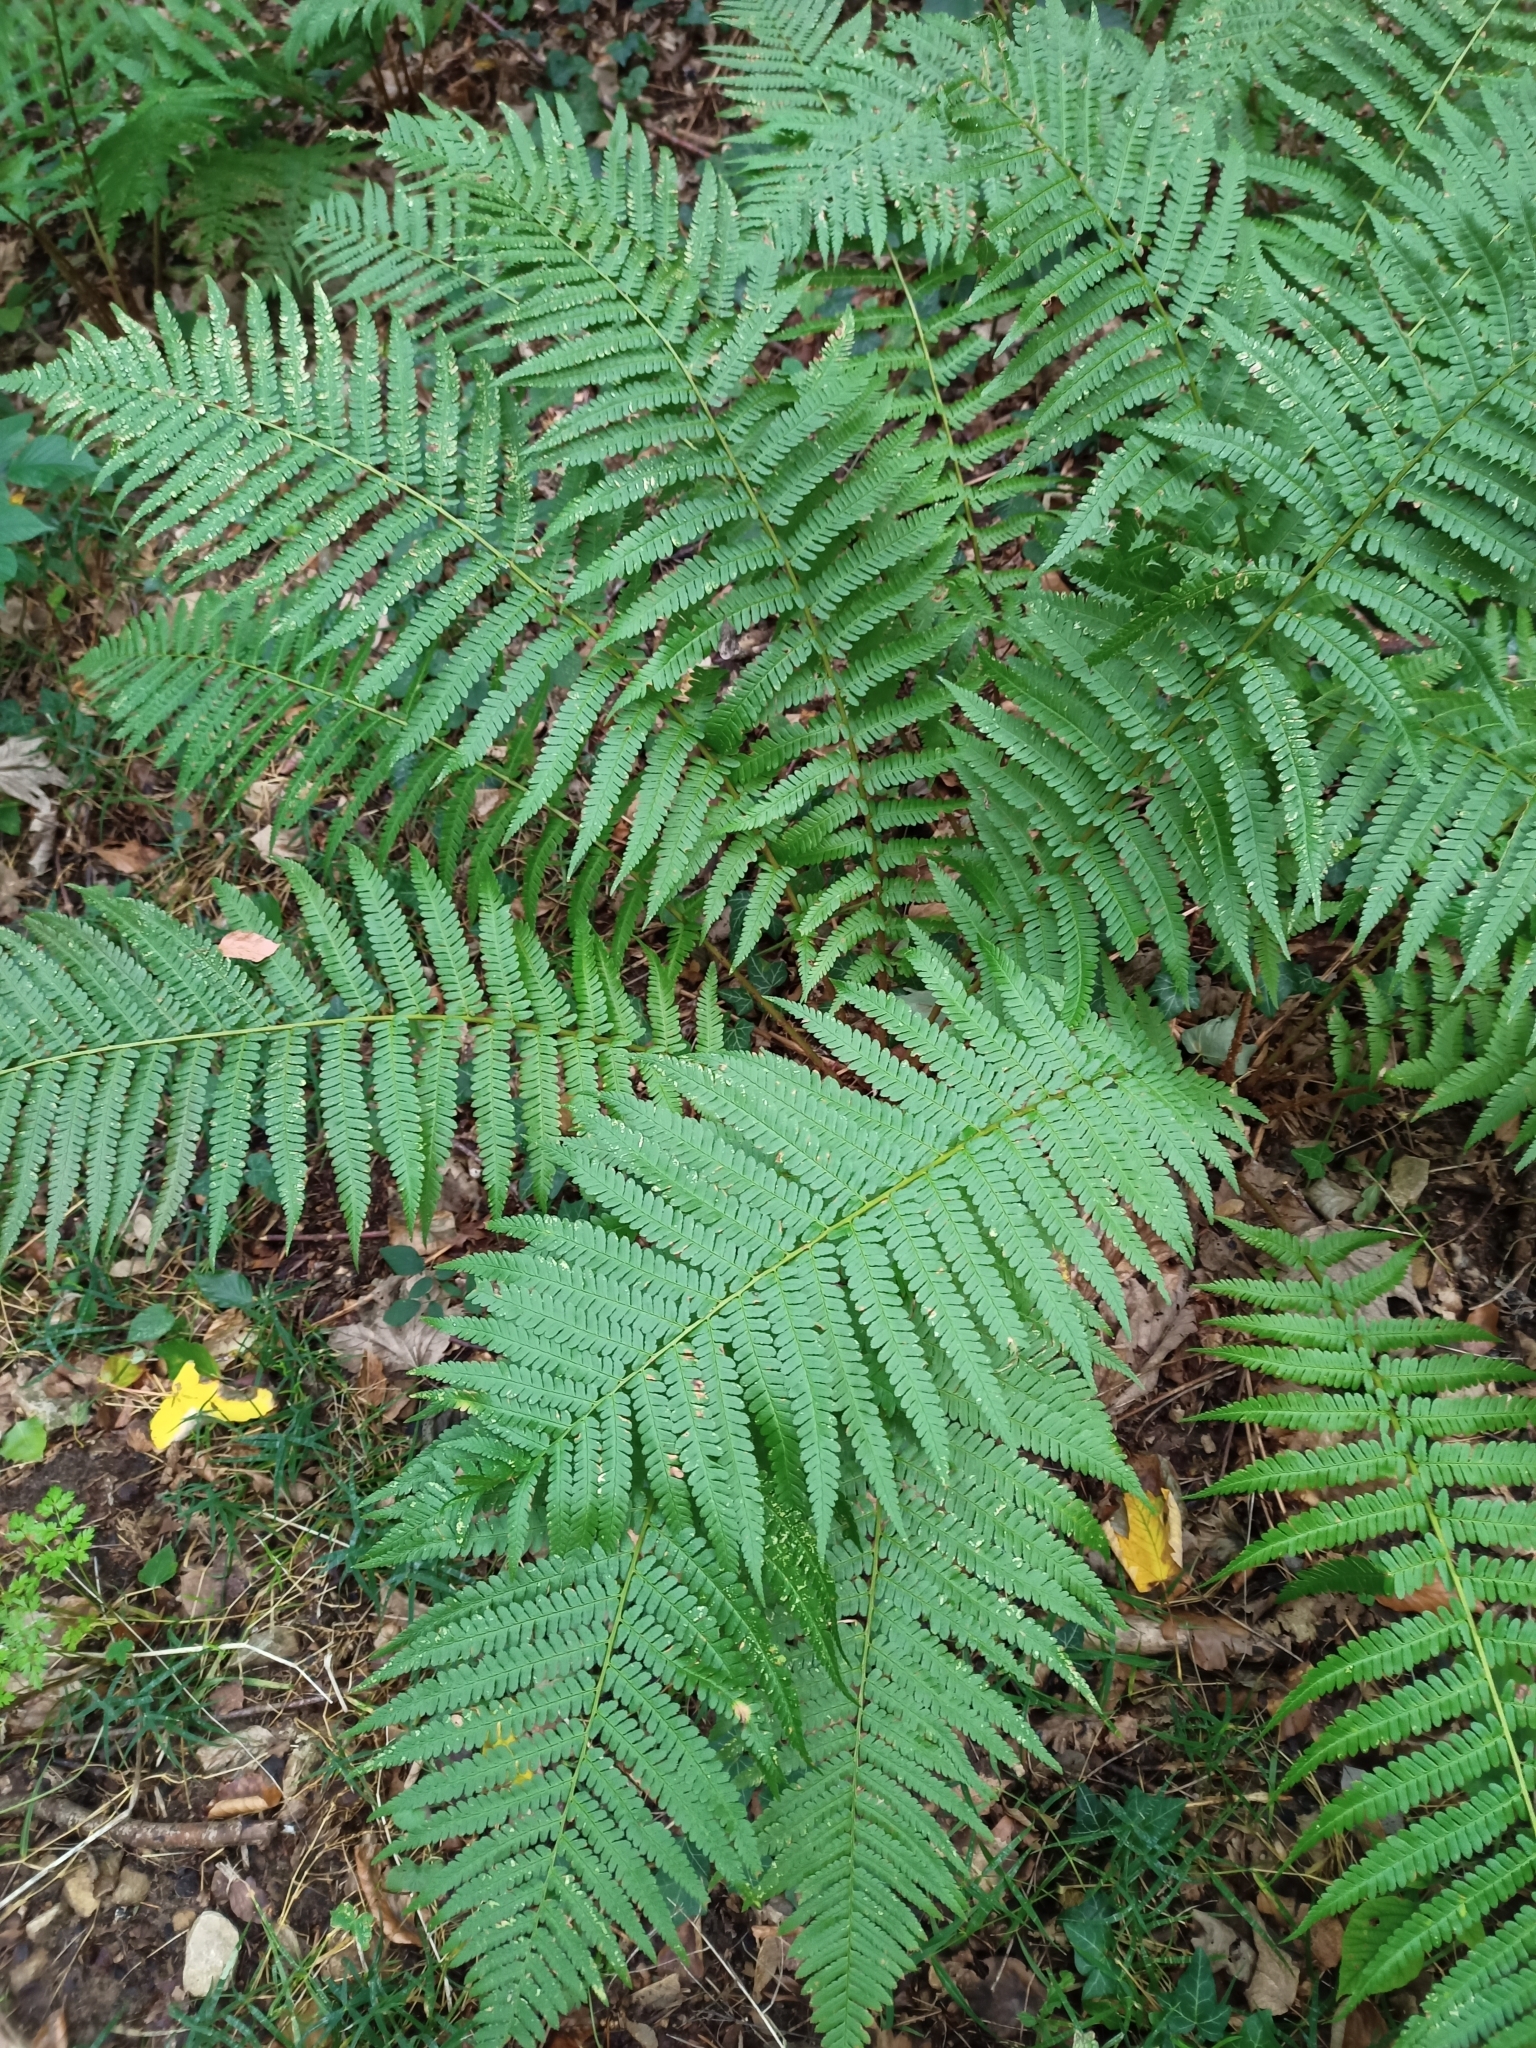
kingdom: Plantae
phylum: Tracheophyta
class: Polypodiopsida
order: Polypodiales
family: Dryopteridaceae
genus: Dryopteris
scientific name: Dryopteris filix-mas
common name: Male fern
